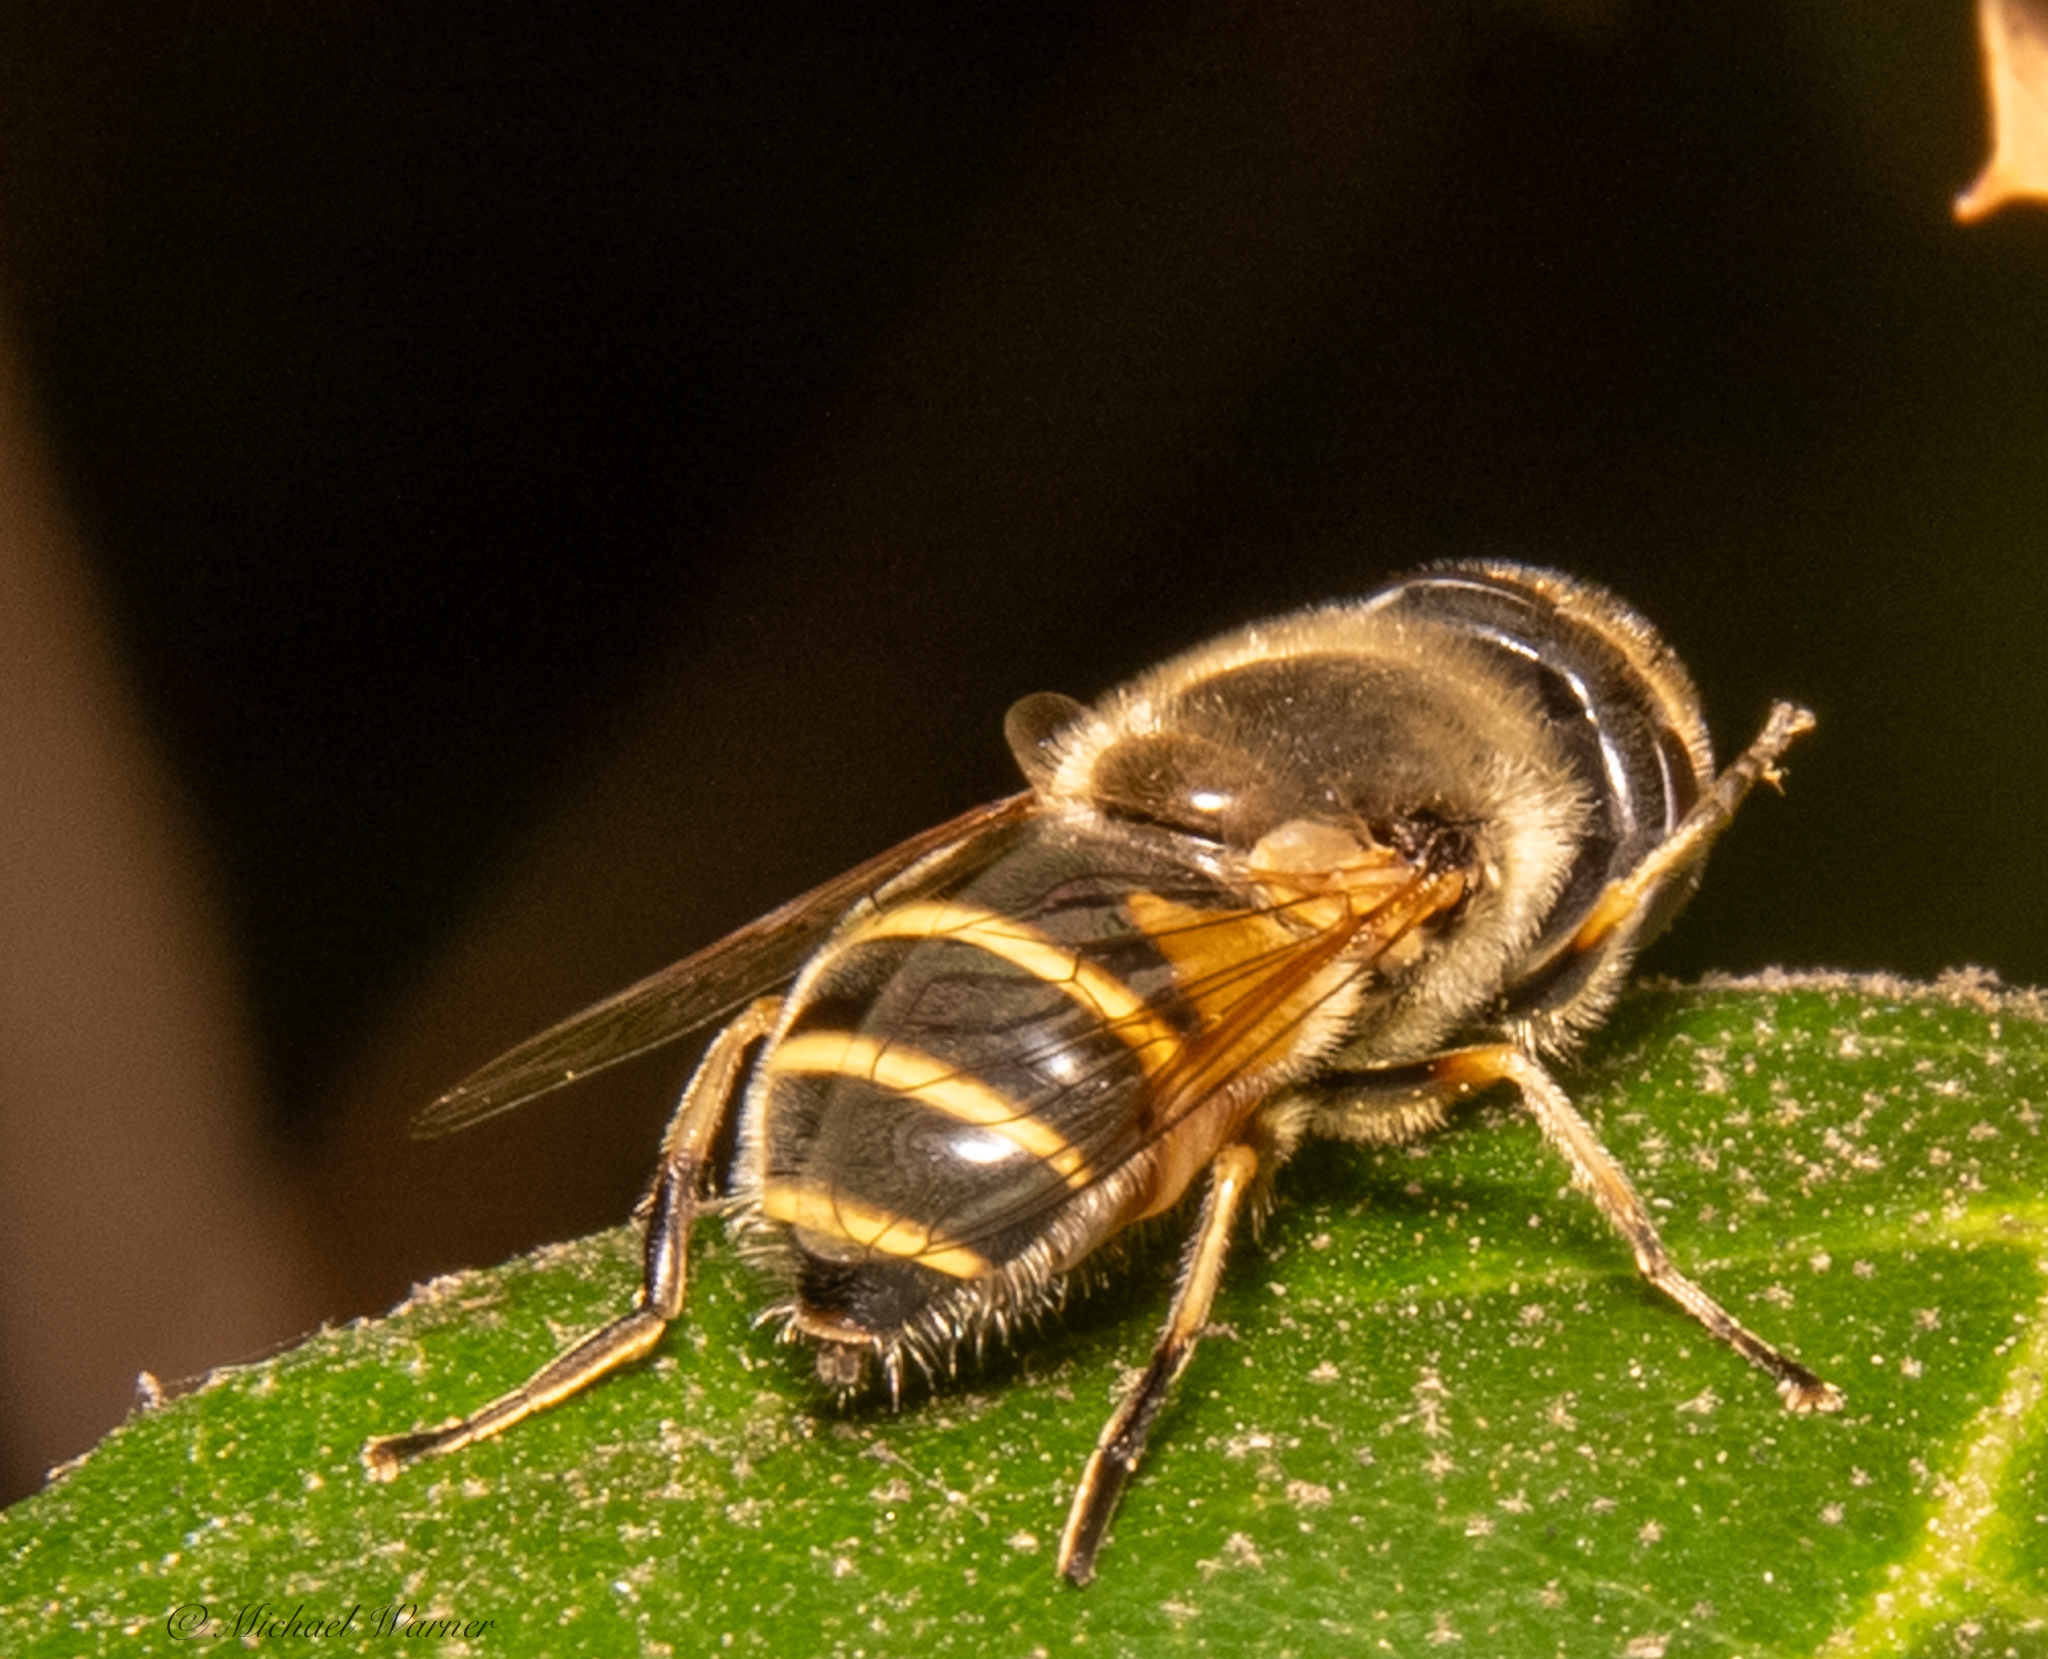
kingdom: Animalia
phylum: Arthropoda
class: Insecta
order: Diptera
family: Syrphidae
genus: Eristalis
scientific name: Eristalis hirta
